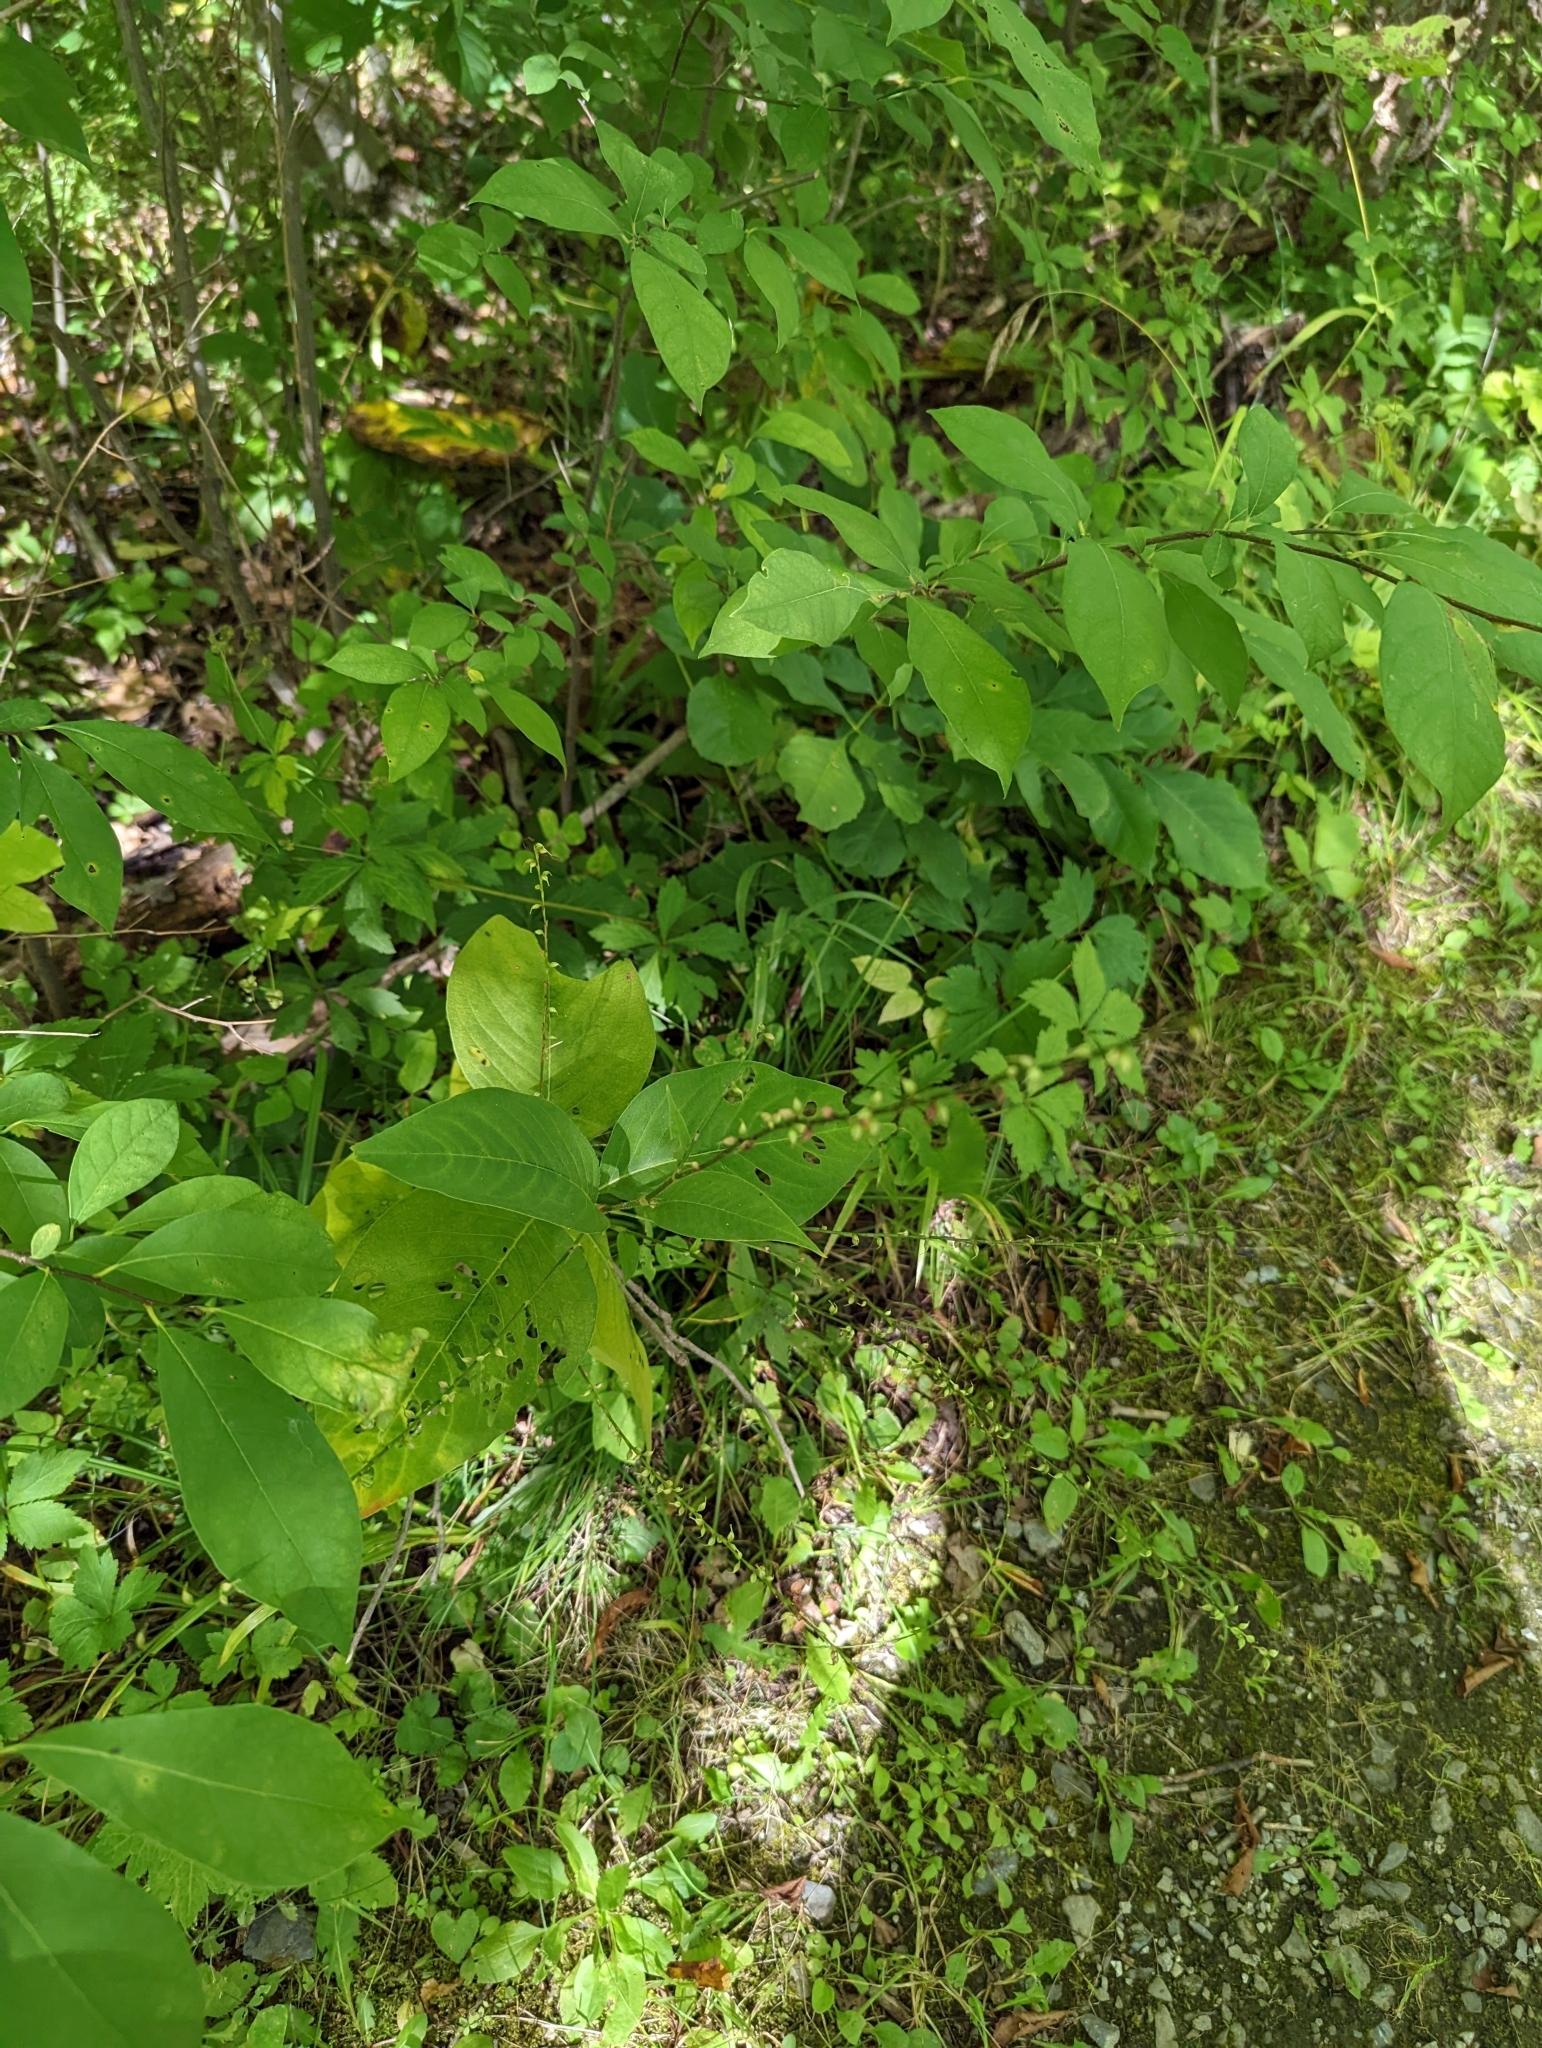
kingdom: Plantae
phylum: Tracheophyta
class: Magnoliopsida
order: Caryophyllales
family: Polygonaceae
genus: Persicaria
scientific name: Persicaria virginiana
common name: Jumpseed
